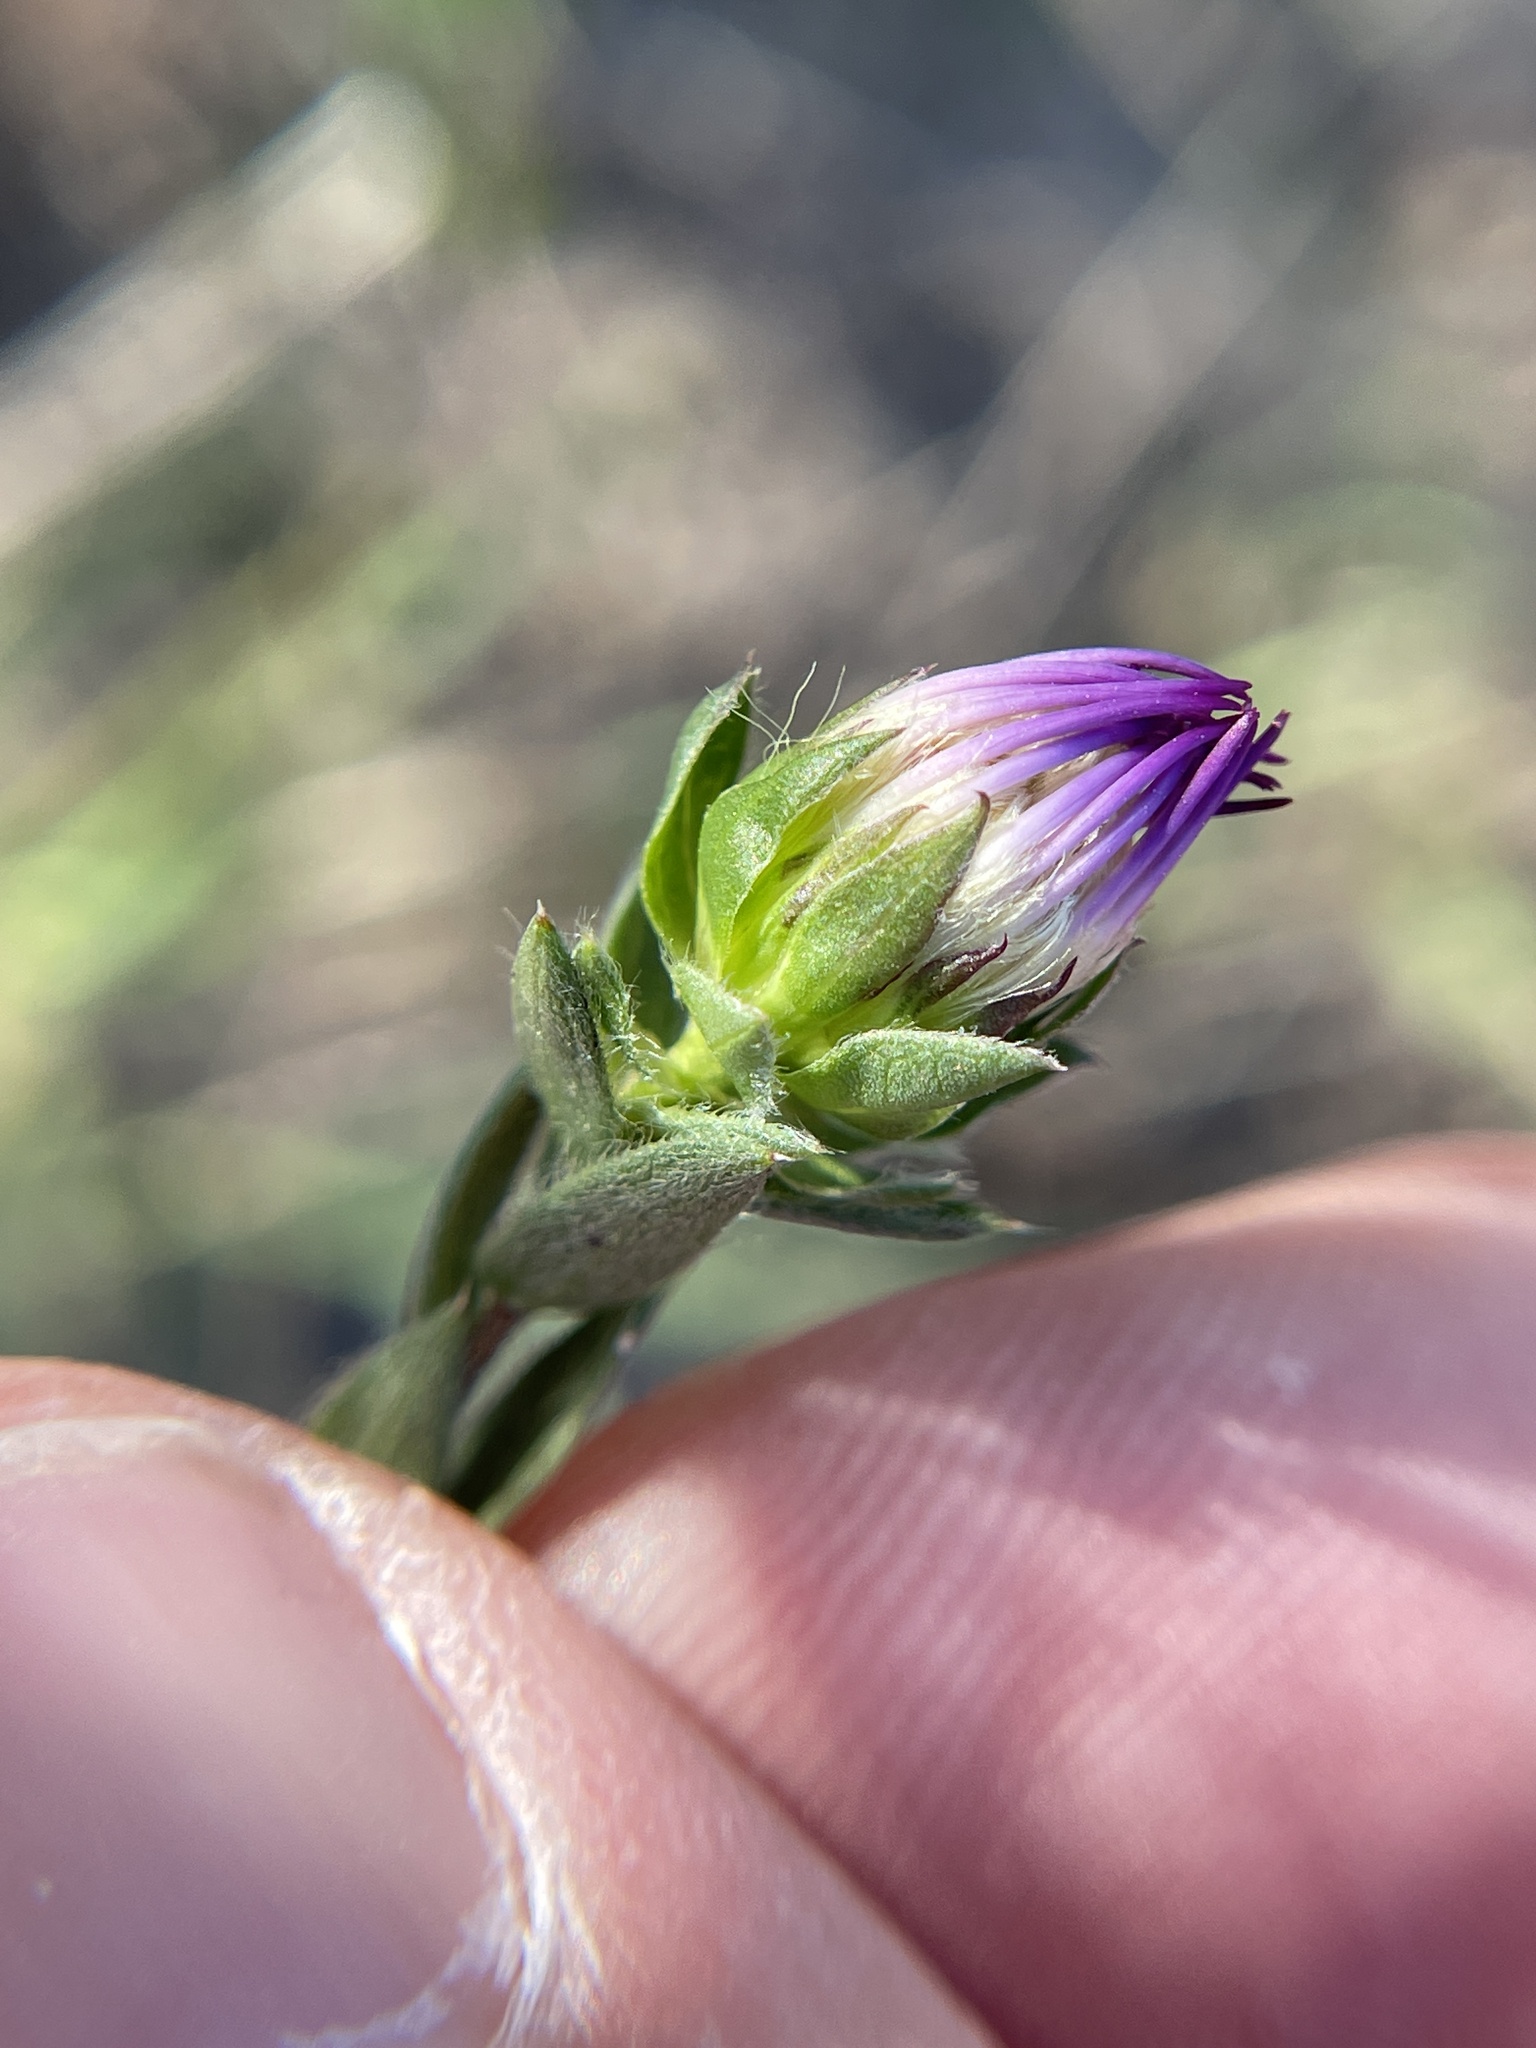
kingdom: Plantae
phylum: Tracheophyta
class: Magnoliopsida
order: Asterales
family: Asteraceae
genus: Symphyotrichum
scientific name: Symphyotrichum pratense
